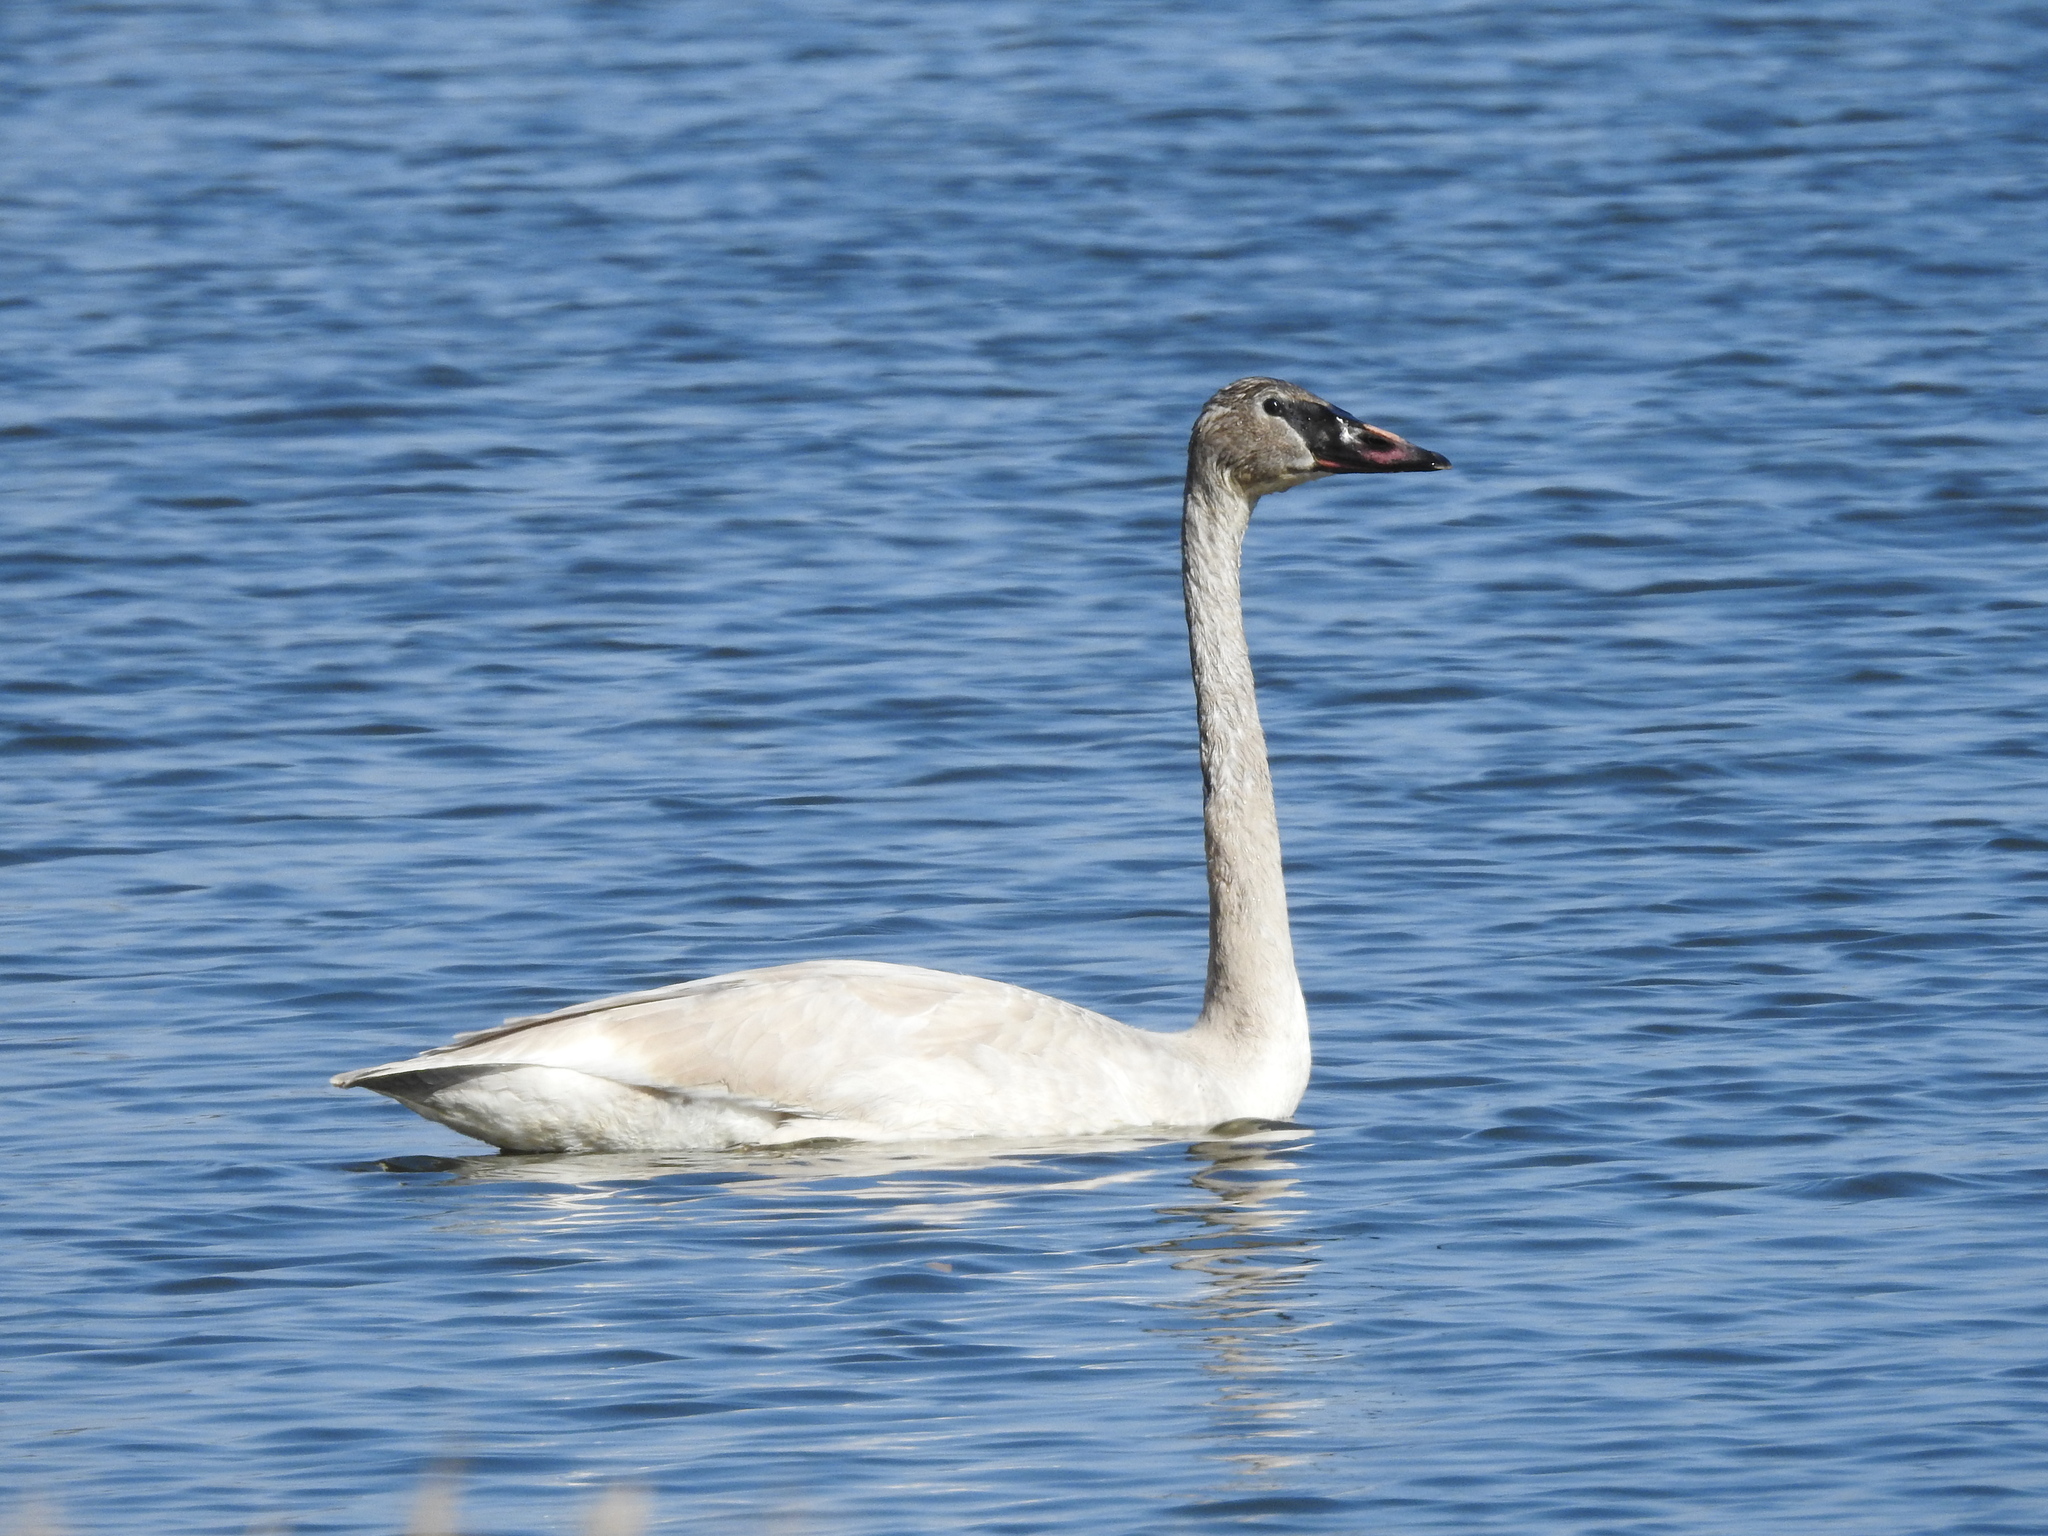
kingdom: Animalia
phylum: Chordata
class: Aves
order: Anseriformes
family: Anatidae
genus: Cygnus
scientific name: Cygnus buccinator
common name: Trumpeter swan
